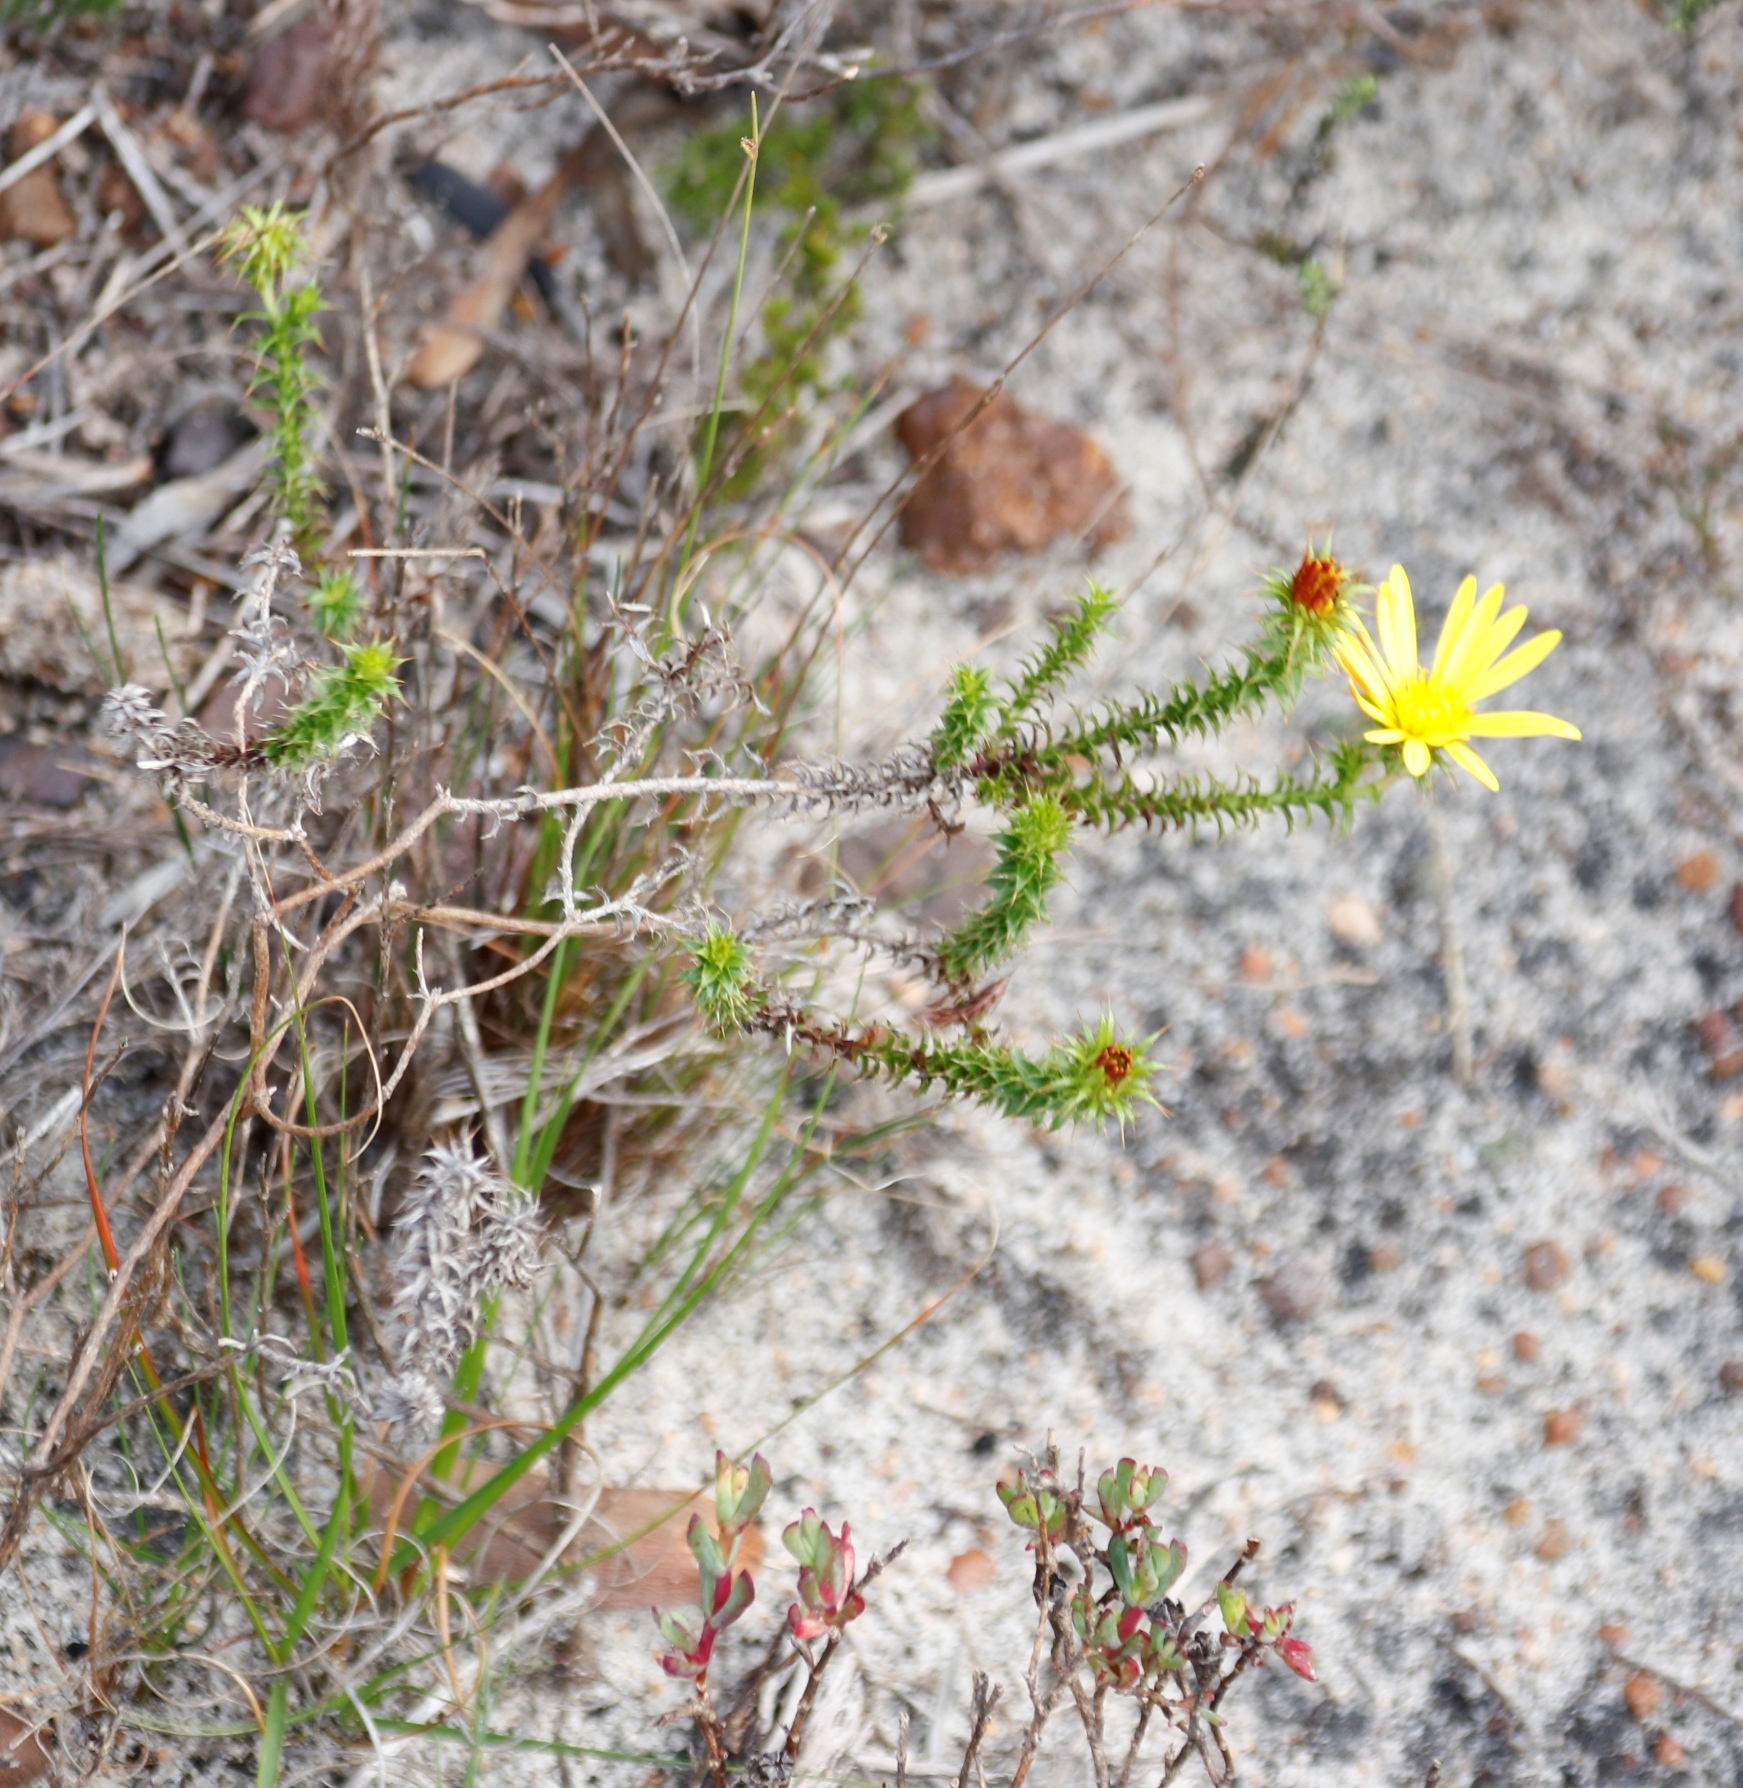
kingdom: Plantae
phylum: Tracheophyta
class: Magnoliopsida
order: Asterales
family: Asteraceae
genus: Cullumia
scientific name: Cullumia setosa
